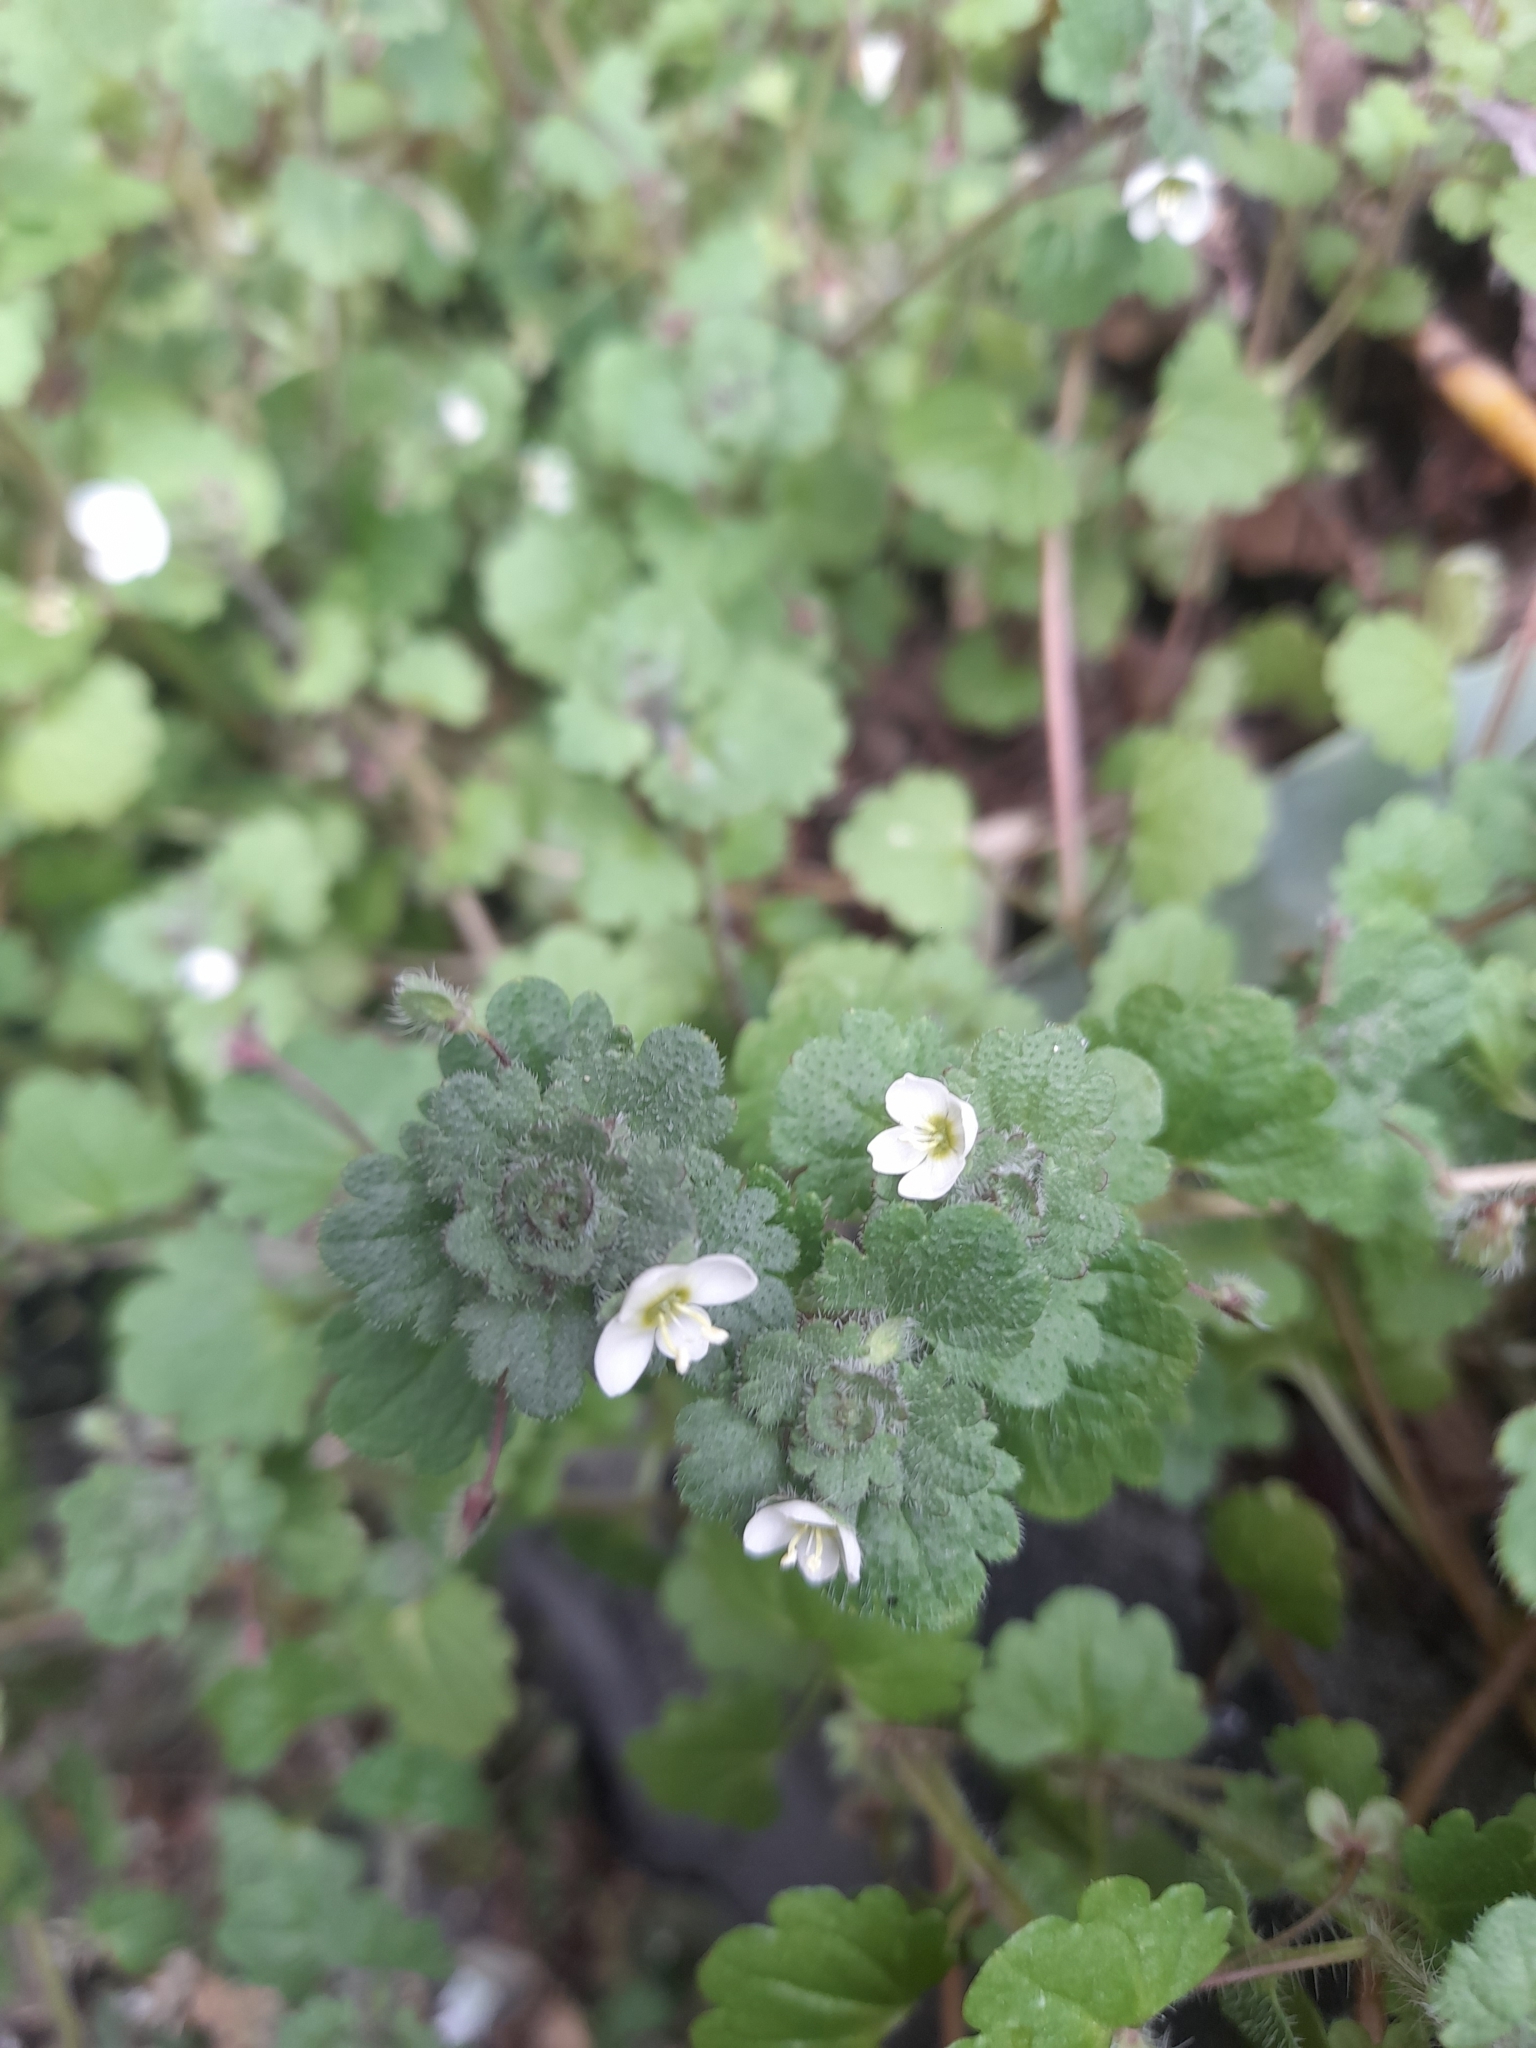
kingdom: Plantae
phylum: Tracheophyta
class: Magnoliopsida
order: Lamiales
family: Plantaginaceae
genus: Veronica
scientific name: Veronica cymbalaria
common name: Pale speedwell
